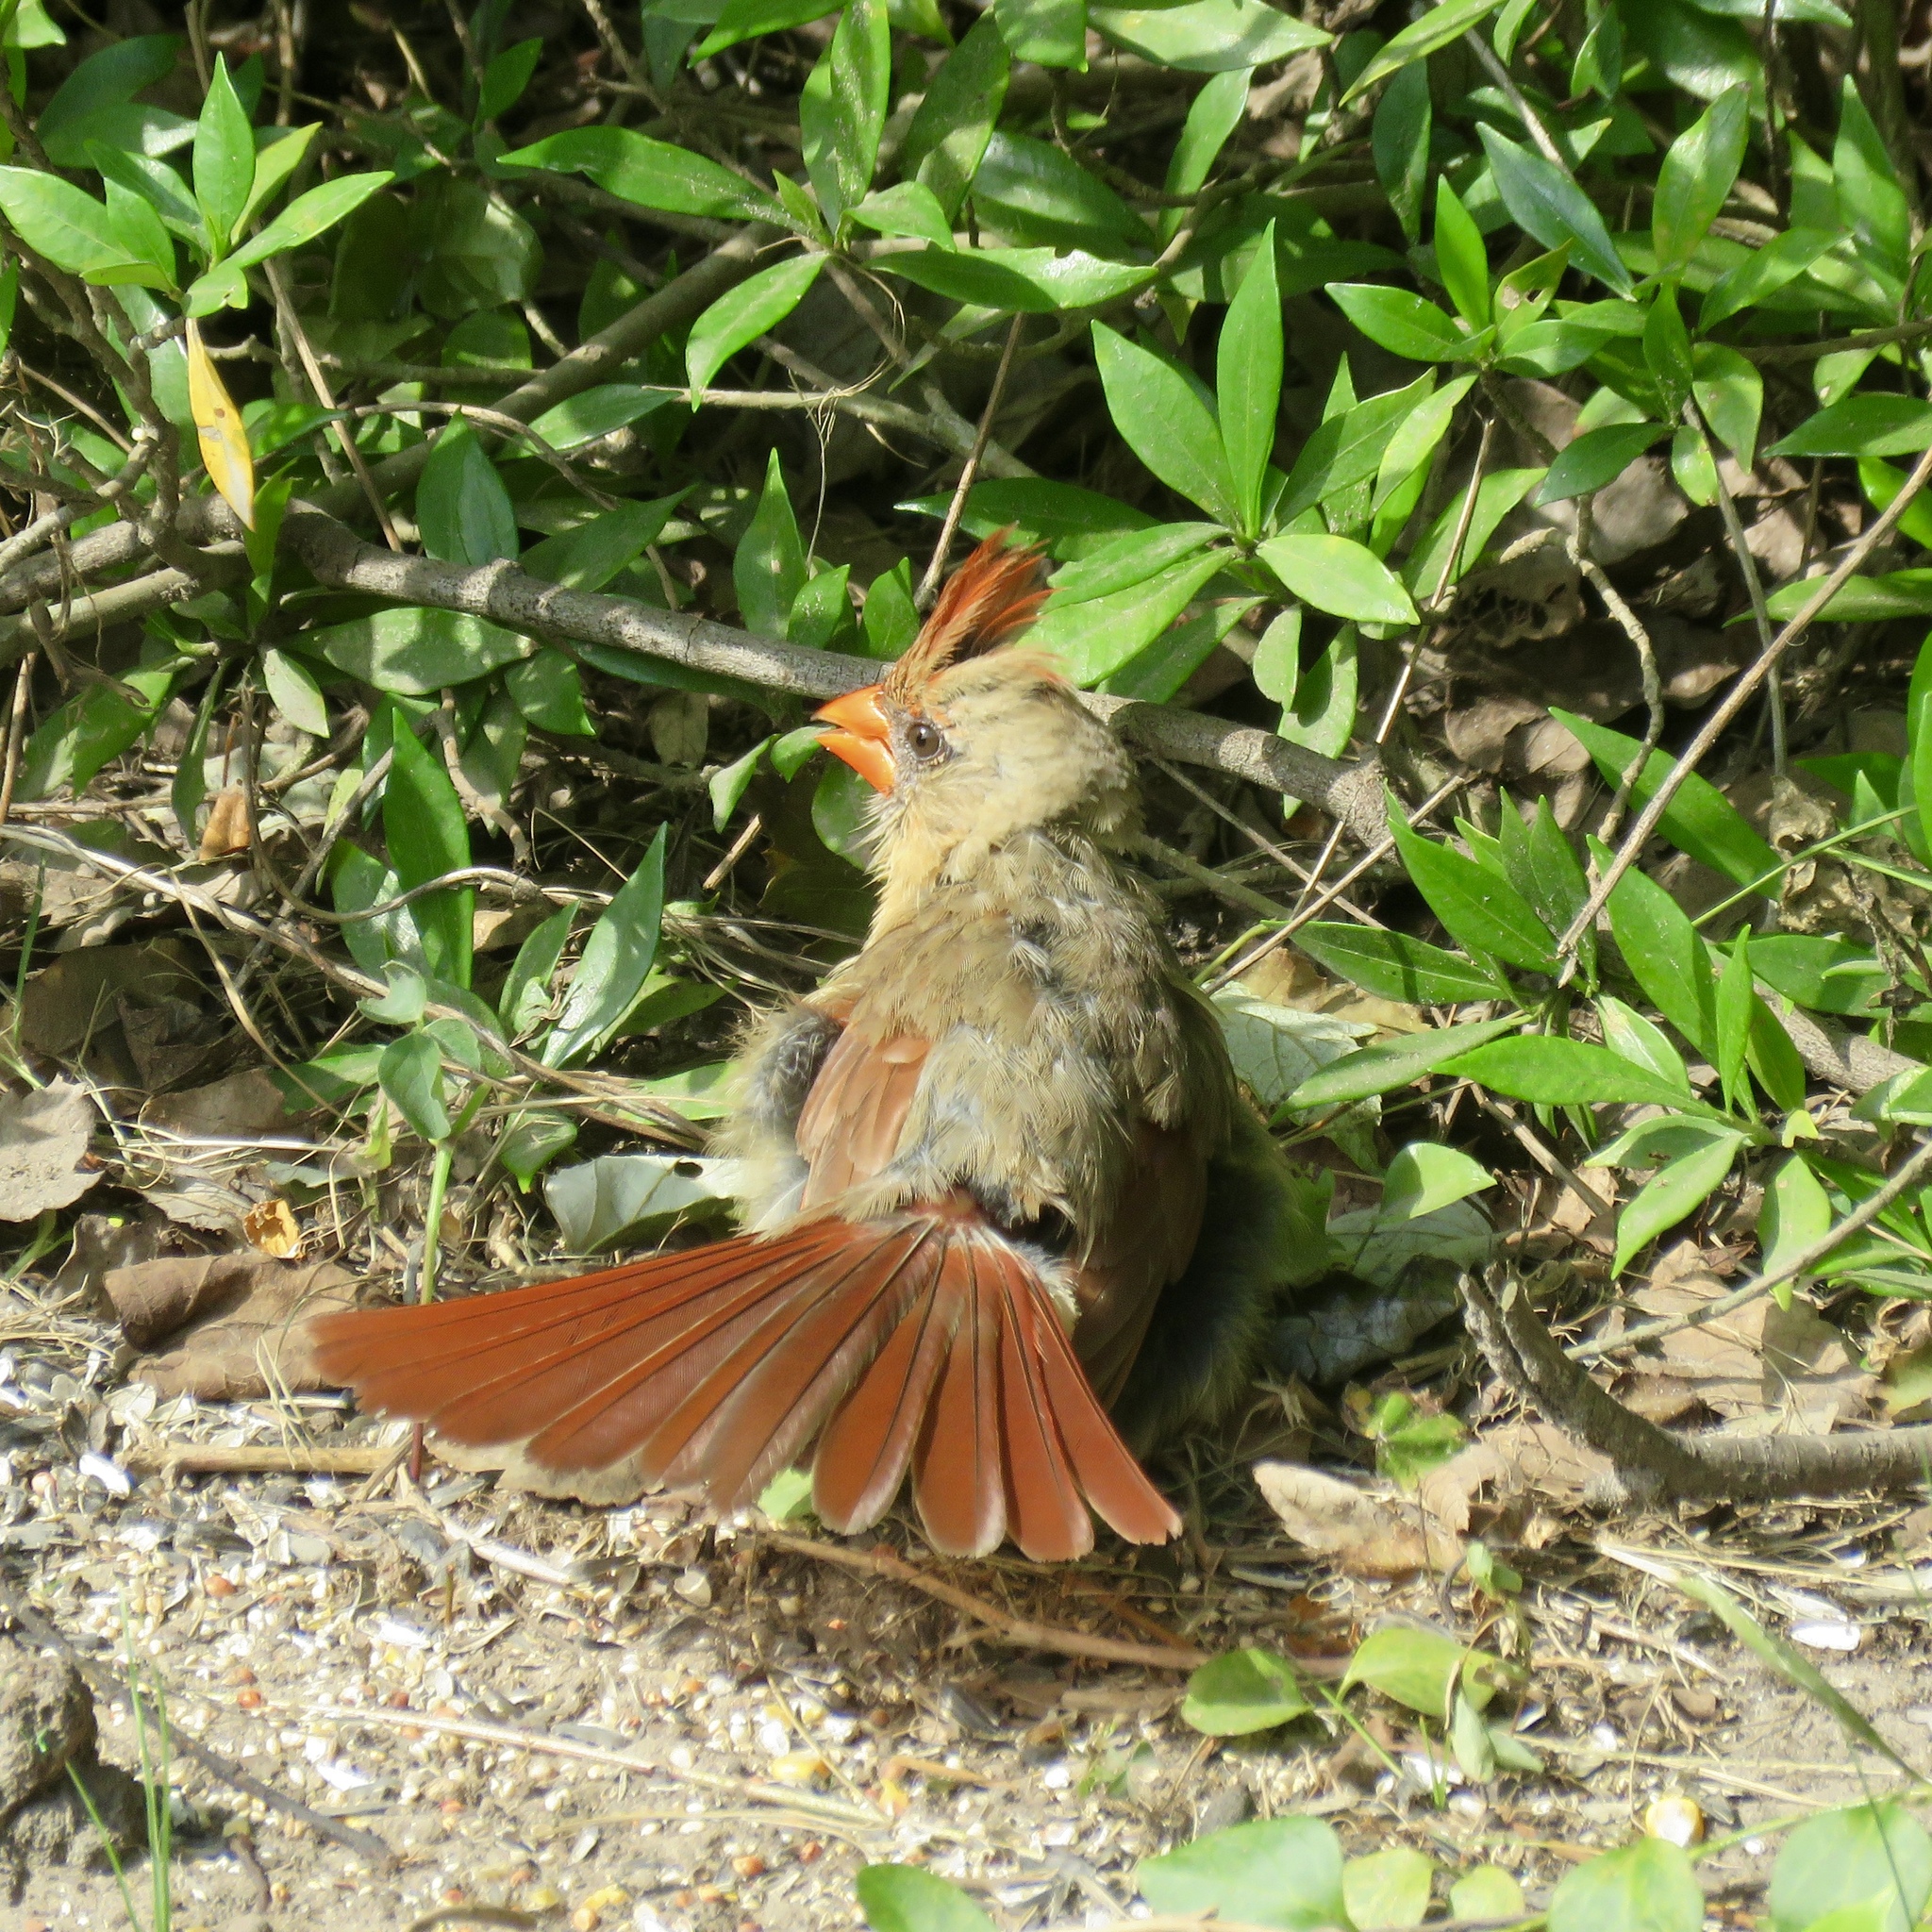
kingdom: Animalia
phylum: Chordata
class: Aves
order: Passeriformes
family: Cardinalidae
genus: Cardinalis
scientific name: Cardinalis cardinalis
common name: Northern cardinal
